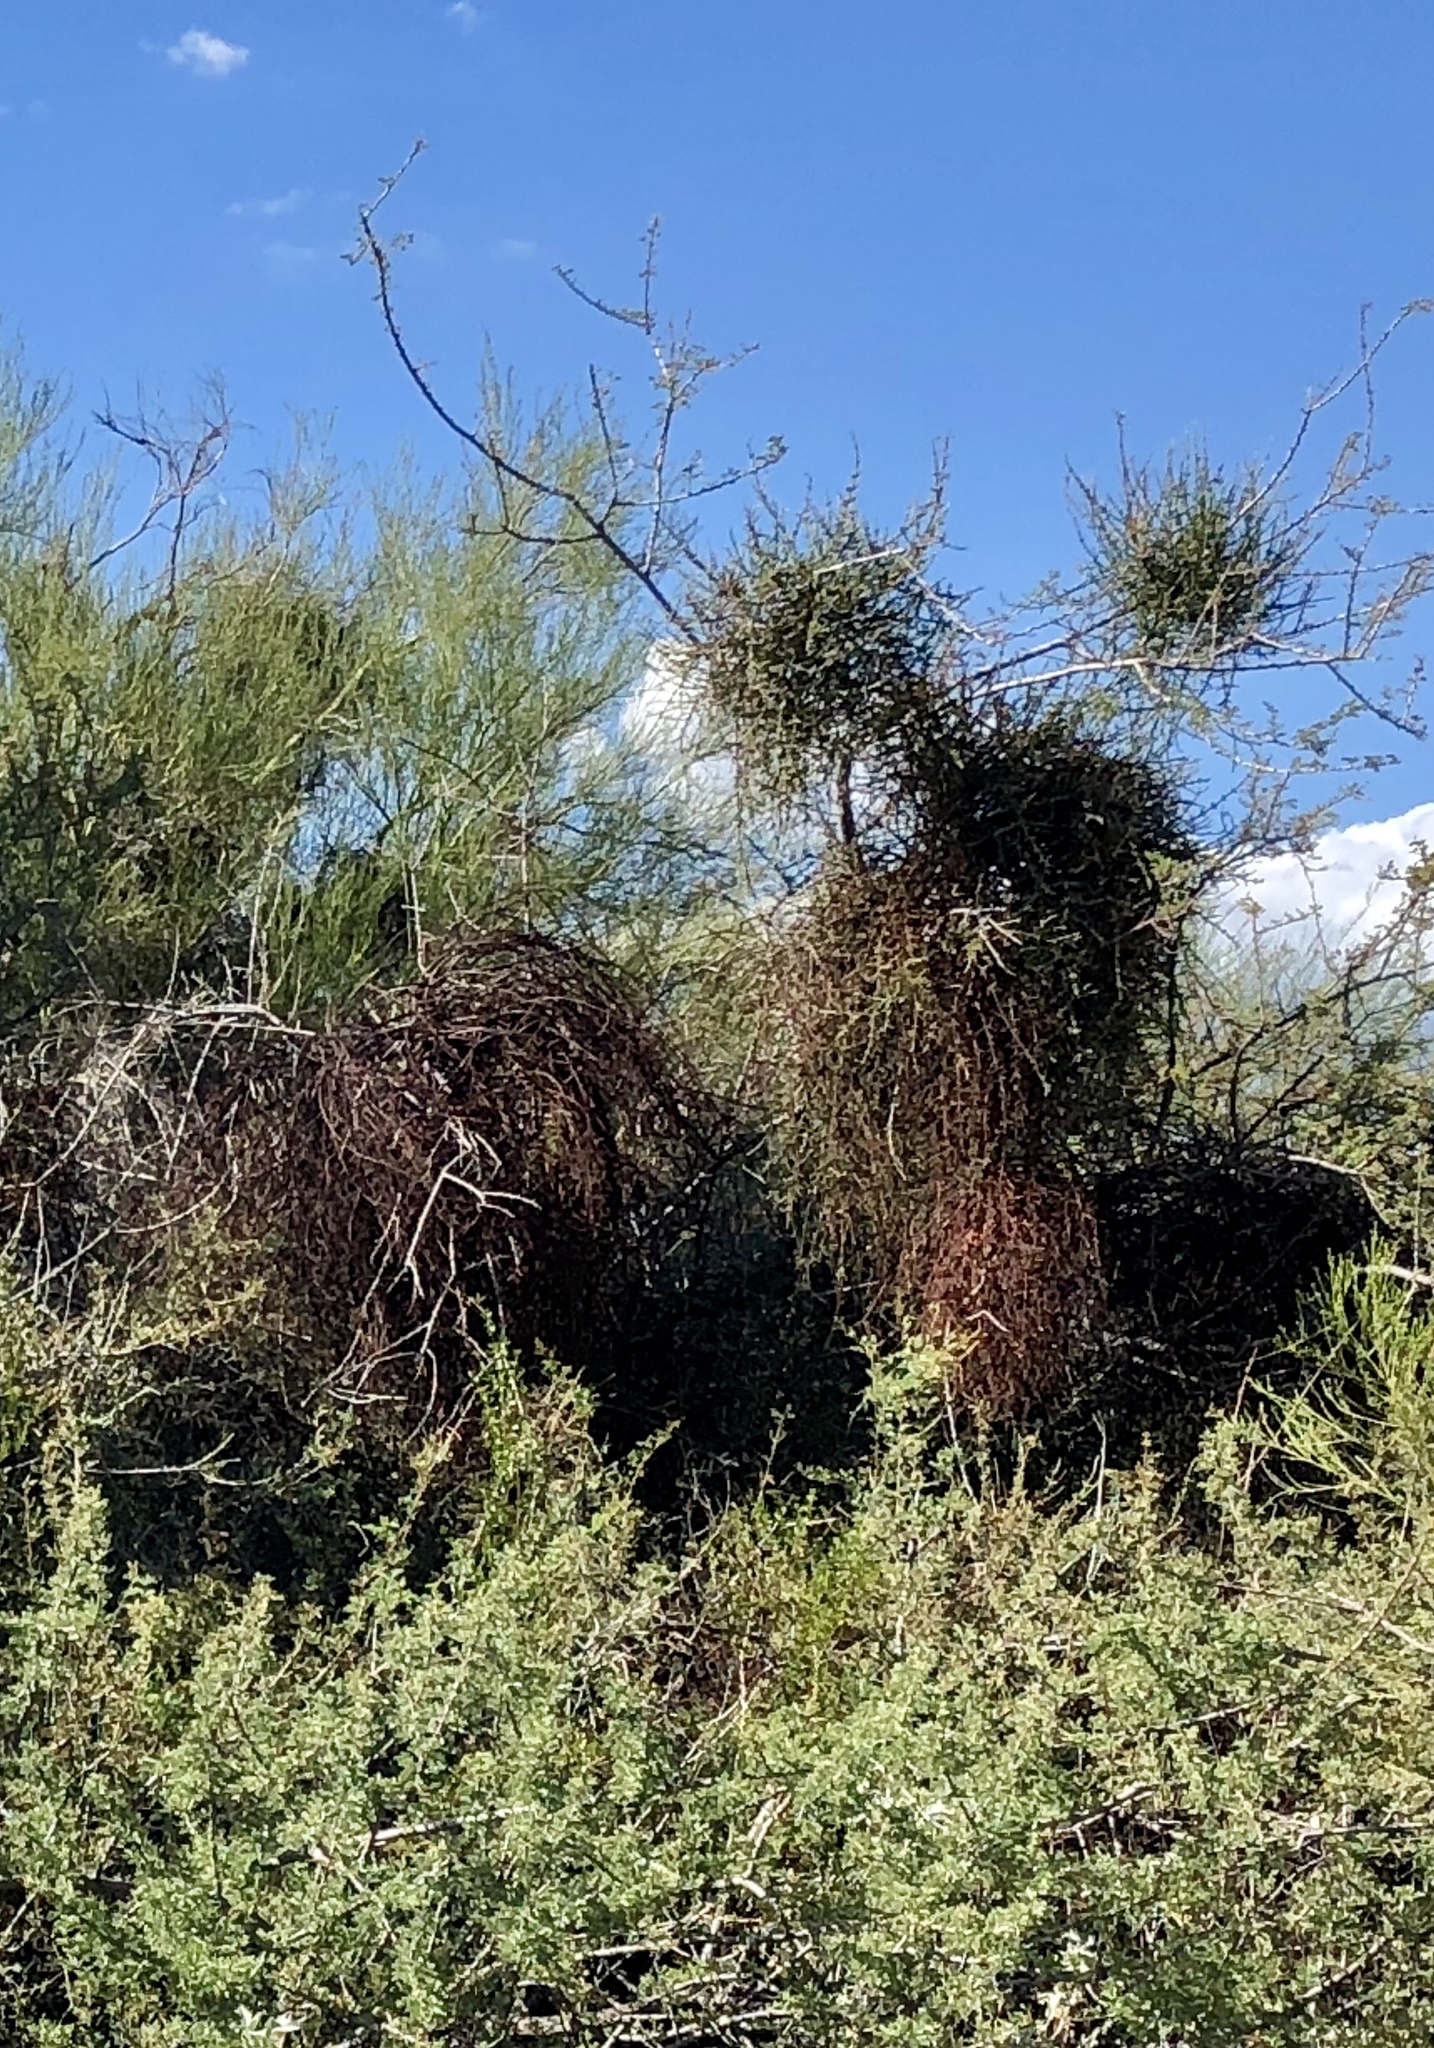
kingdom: Plantae
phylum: Tracheophyta
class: Magnoliopsida
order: Santalales
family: Viscaceae
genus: Phoradendron
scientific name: Phoradendron californicum
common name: Acacia mistletoe
